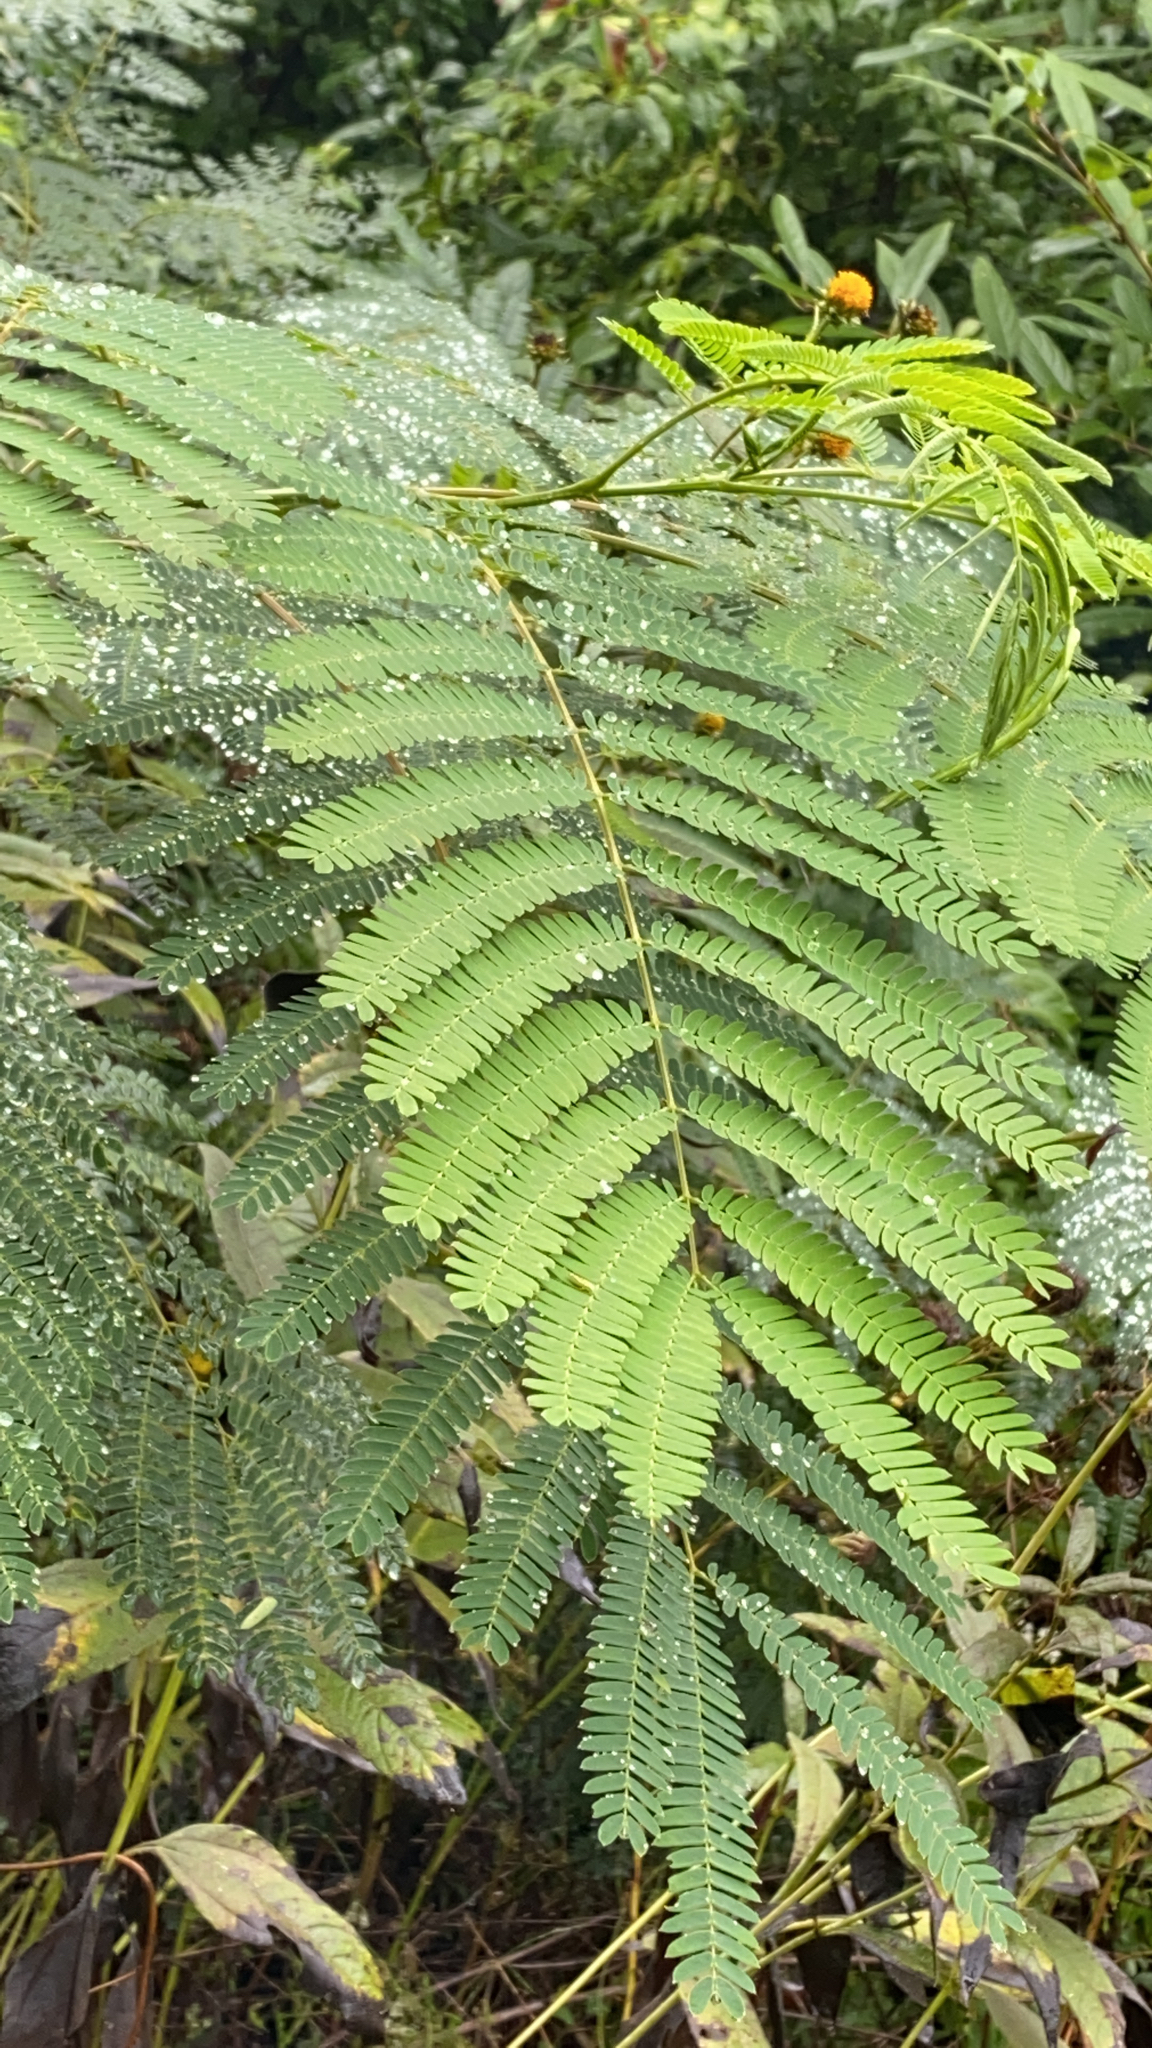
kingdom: Plantae
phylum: Tracheophyta
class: Magnoliopsida
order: Fabales
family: Fabaceae
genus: Albizia
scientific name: Albizia julibrissin
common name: Silktree
